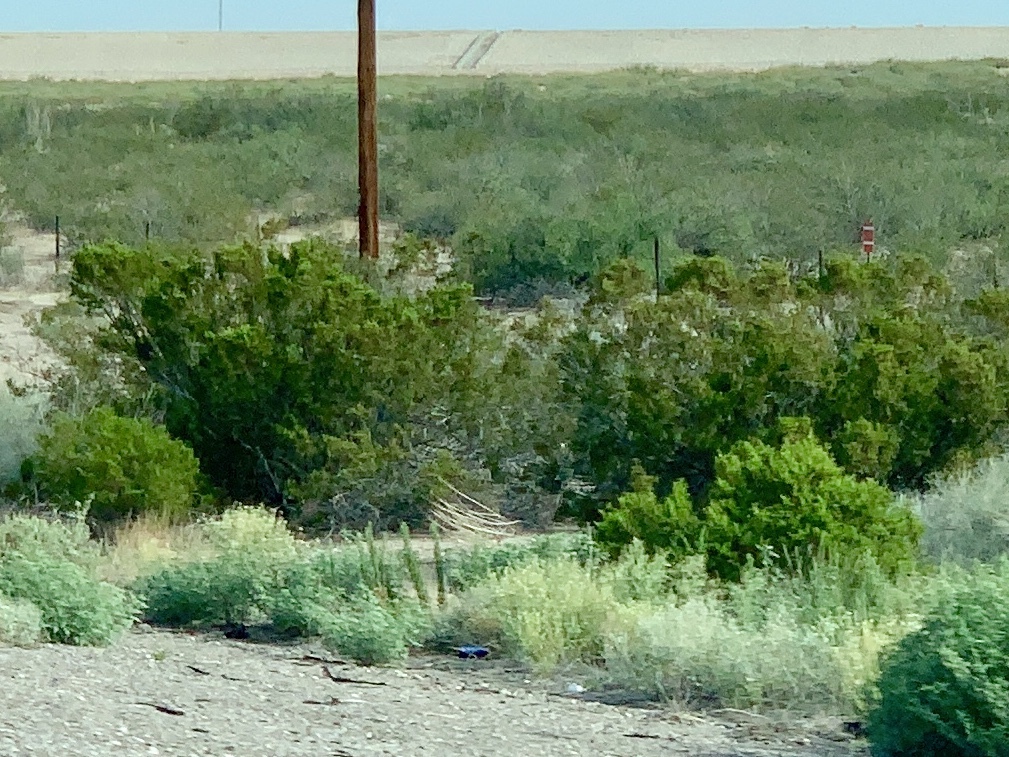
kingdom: Plantae
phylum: Tracheophyta
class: Magnoliopsida
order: Zygophyllales
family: Zygophyllaceae
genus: Larrea
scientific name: Larrea tridentata
